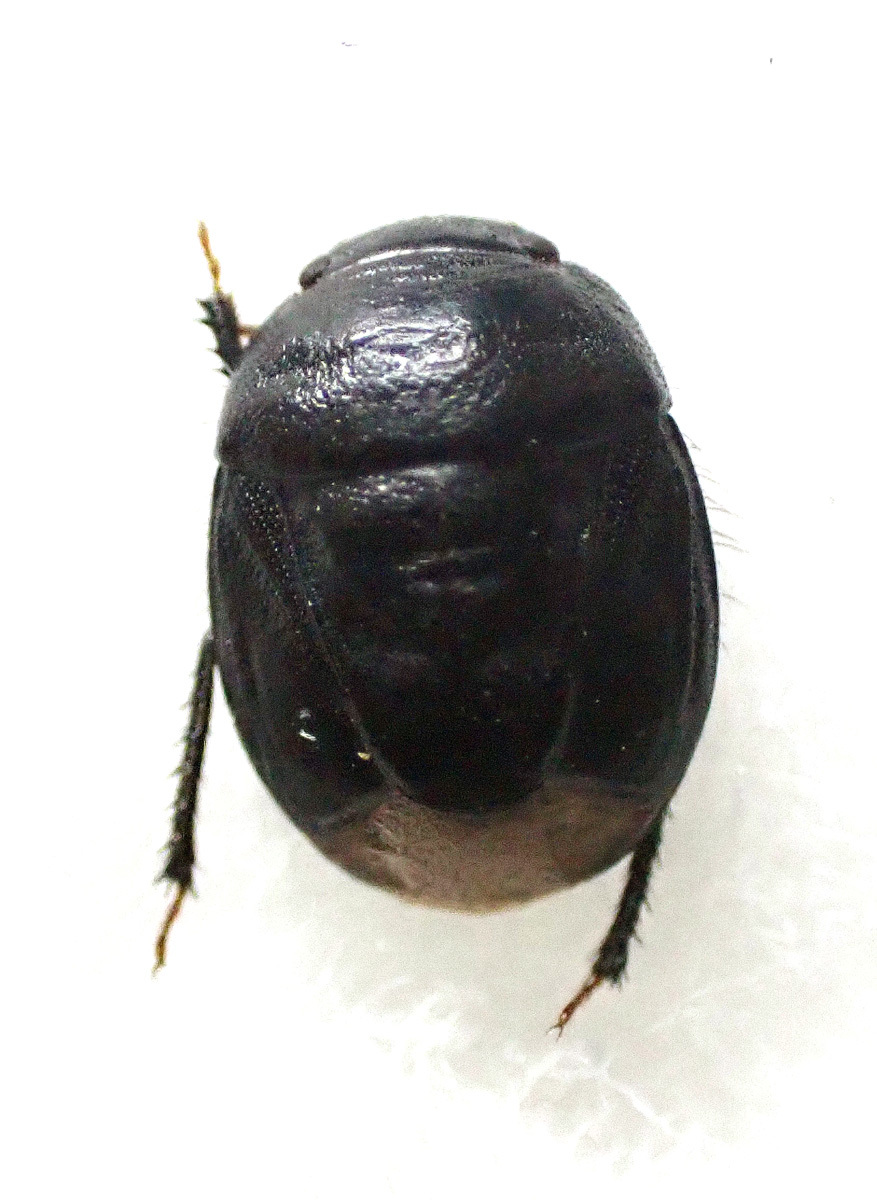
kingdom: Animalia
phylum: Arthropoda
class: Insecta
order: Hemiptera
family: Cydnidae
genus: Amaurocoris
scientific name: Amaurocoris curtus
